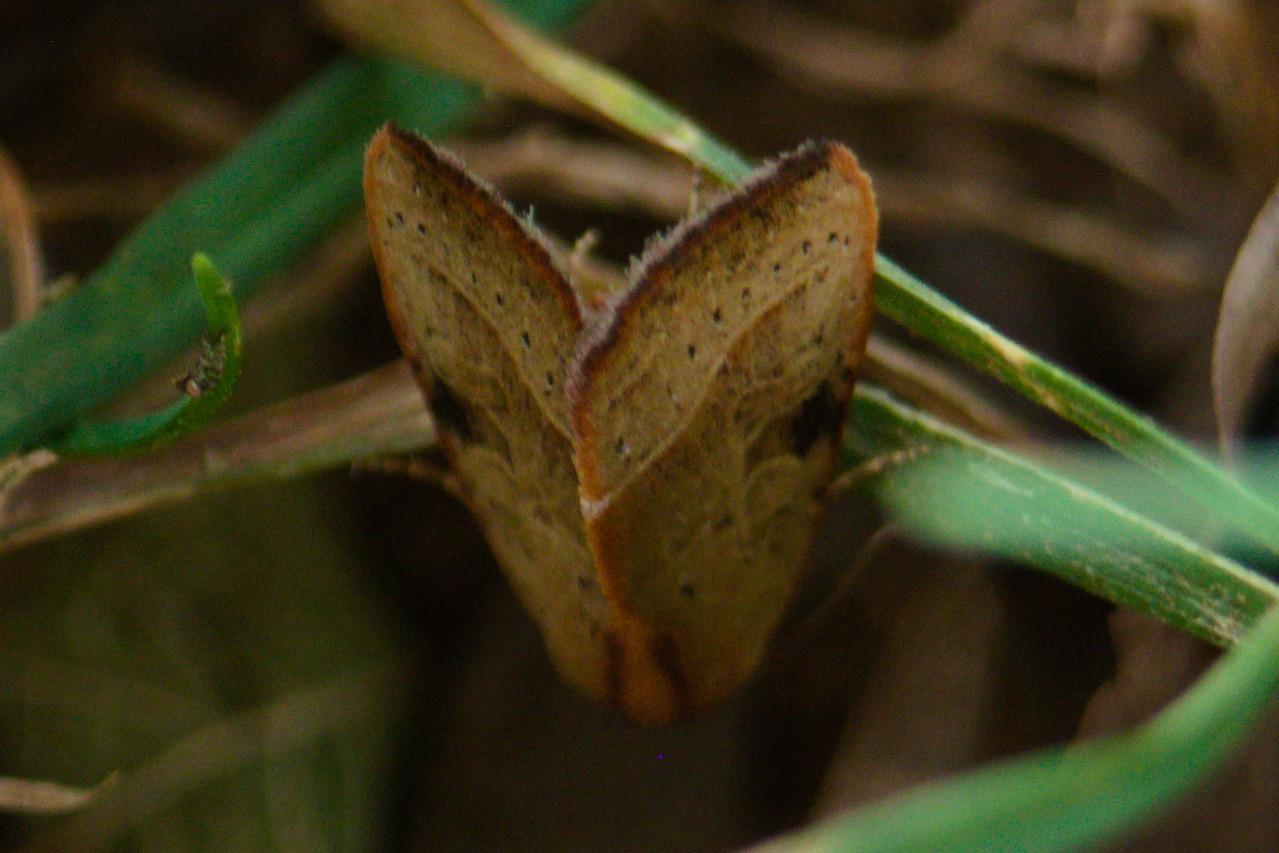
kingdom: Animalia
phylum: Arthropoda
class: Insecta
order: Lepidoptera
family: Noctuidae
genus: Galgula
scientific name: Galgula partita
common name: Wedgeling
